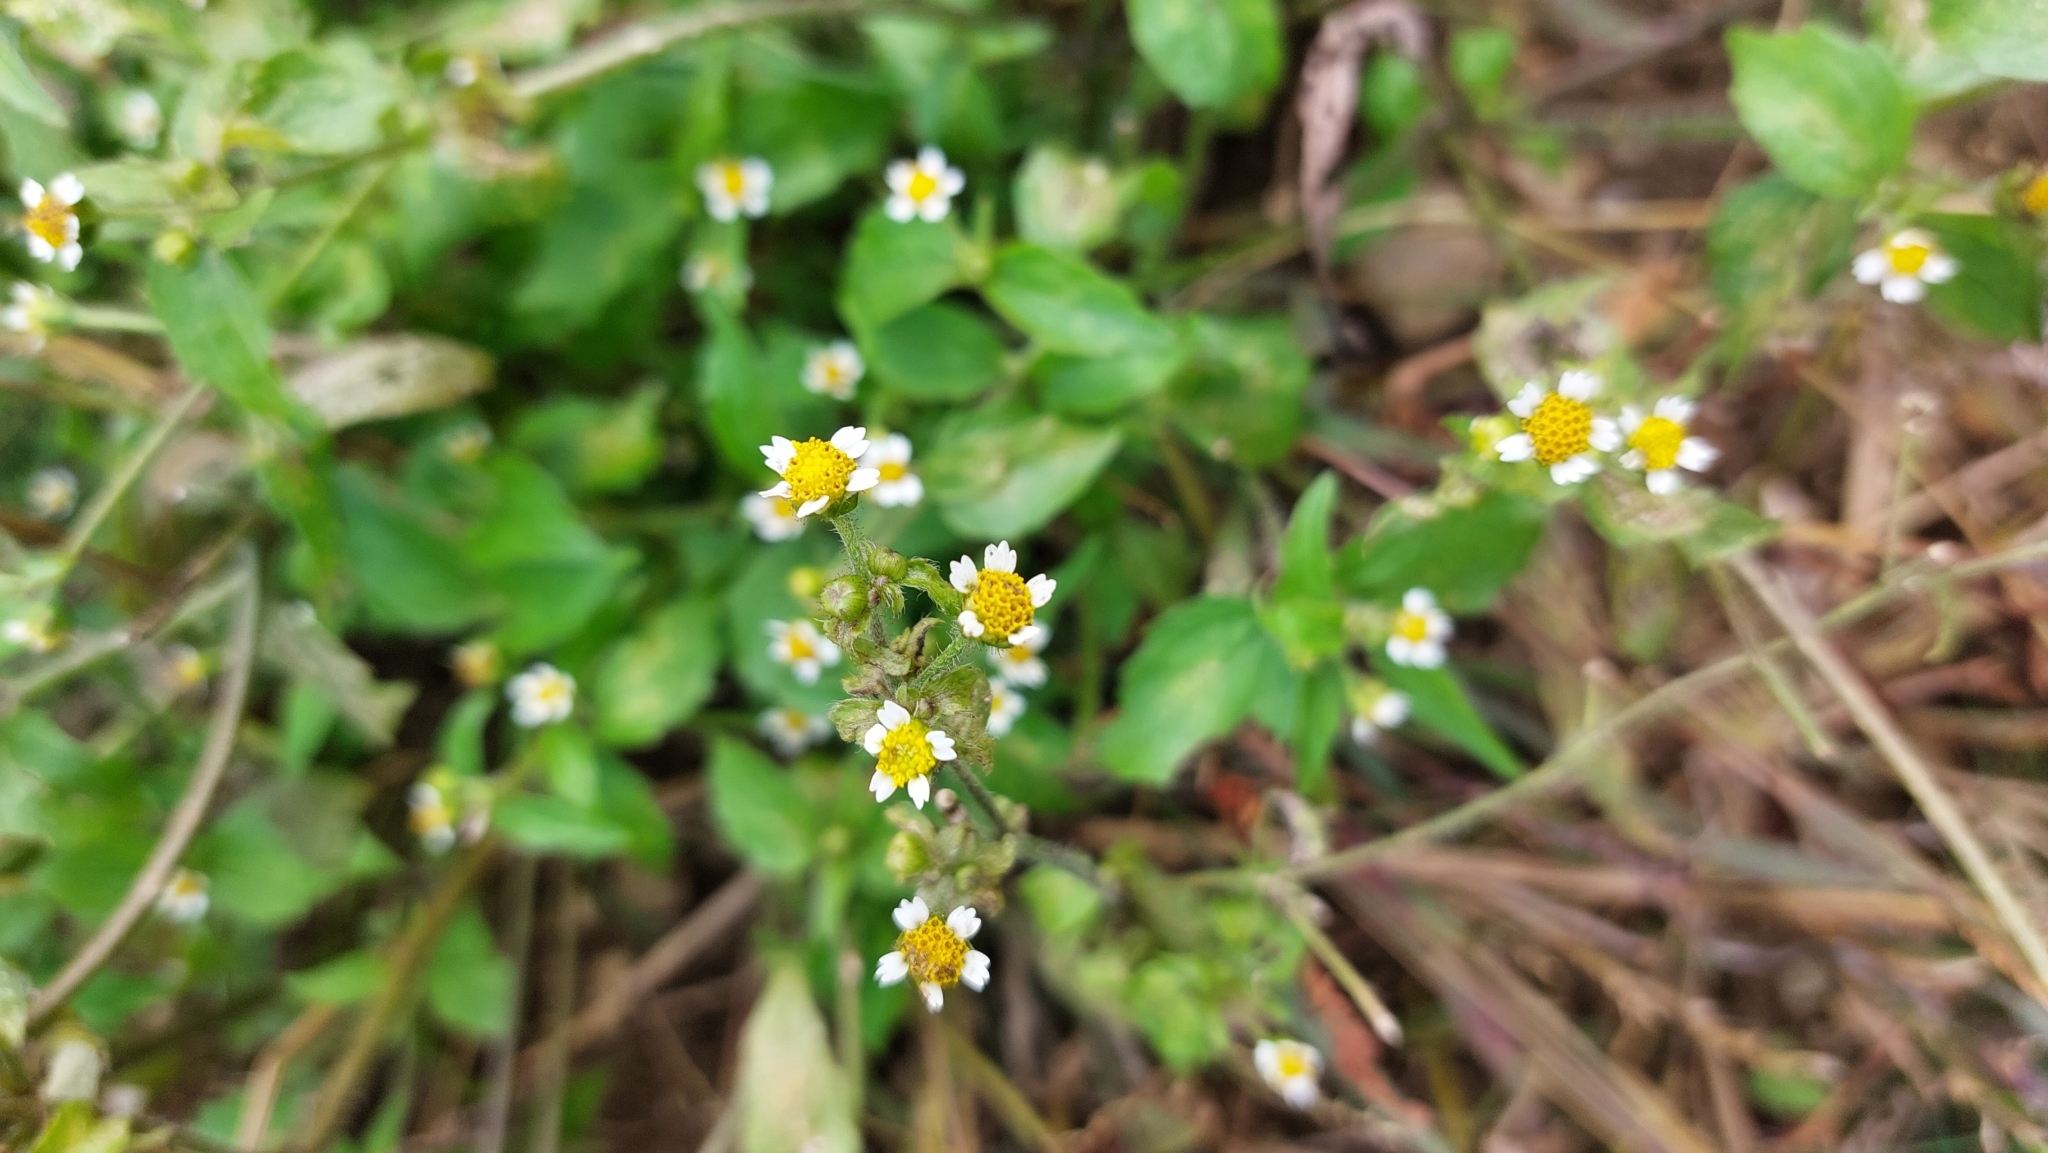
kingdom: Plantae
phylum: Tracheophyta
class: Magnoliopsida
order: Asterales
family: Asteraceae
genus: Galinsoga
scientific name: Galinsoga quadriradiata
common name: Shaggy soldier
